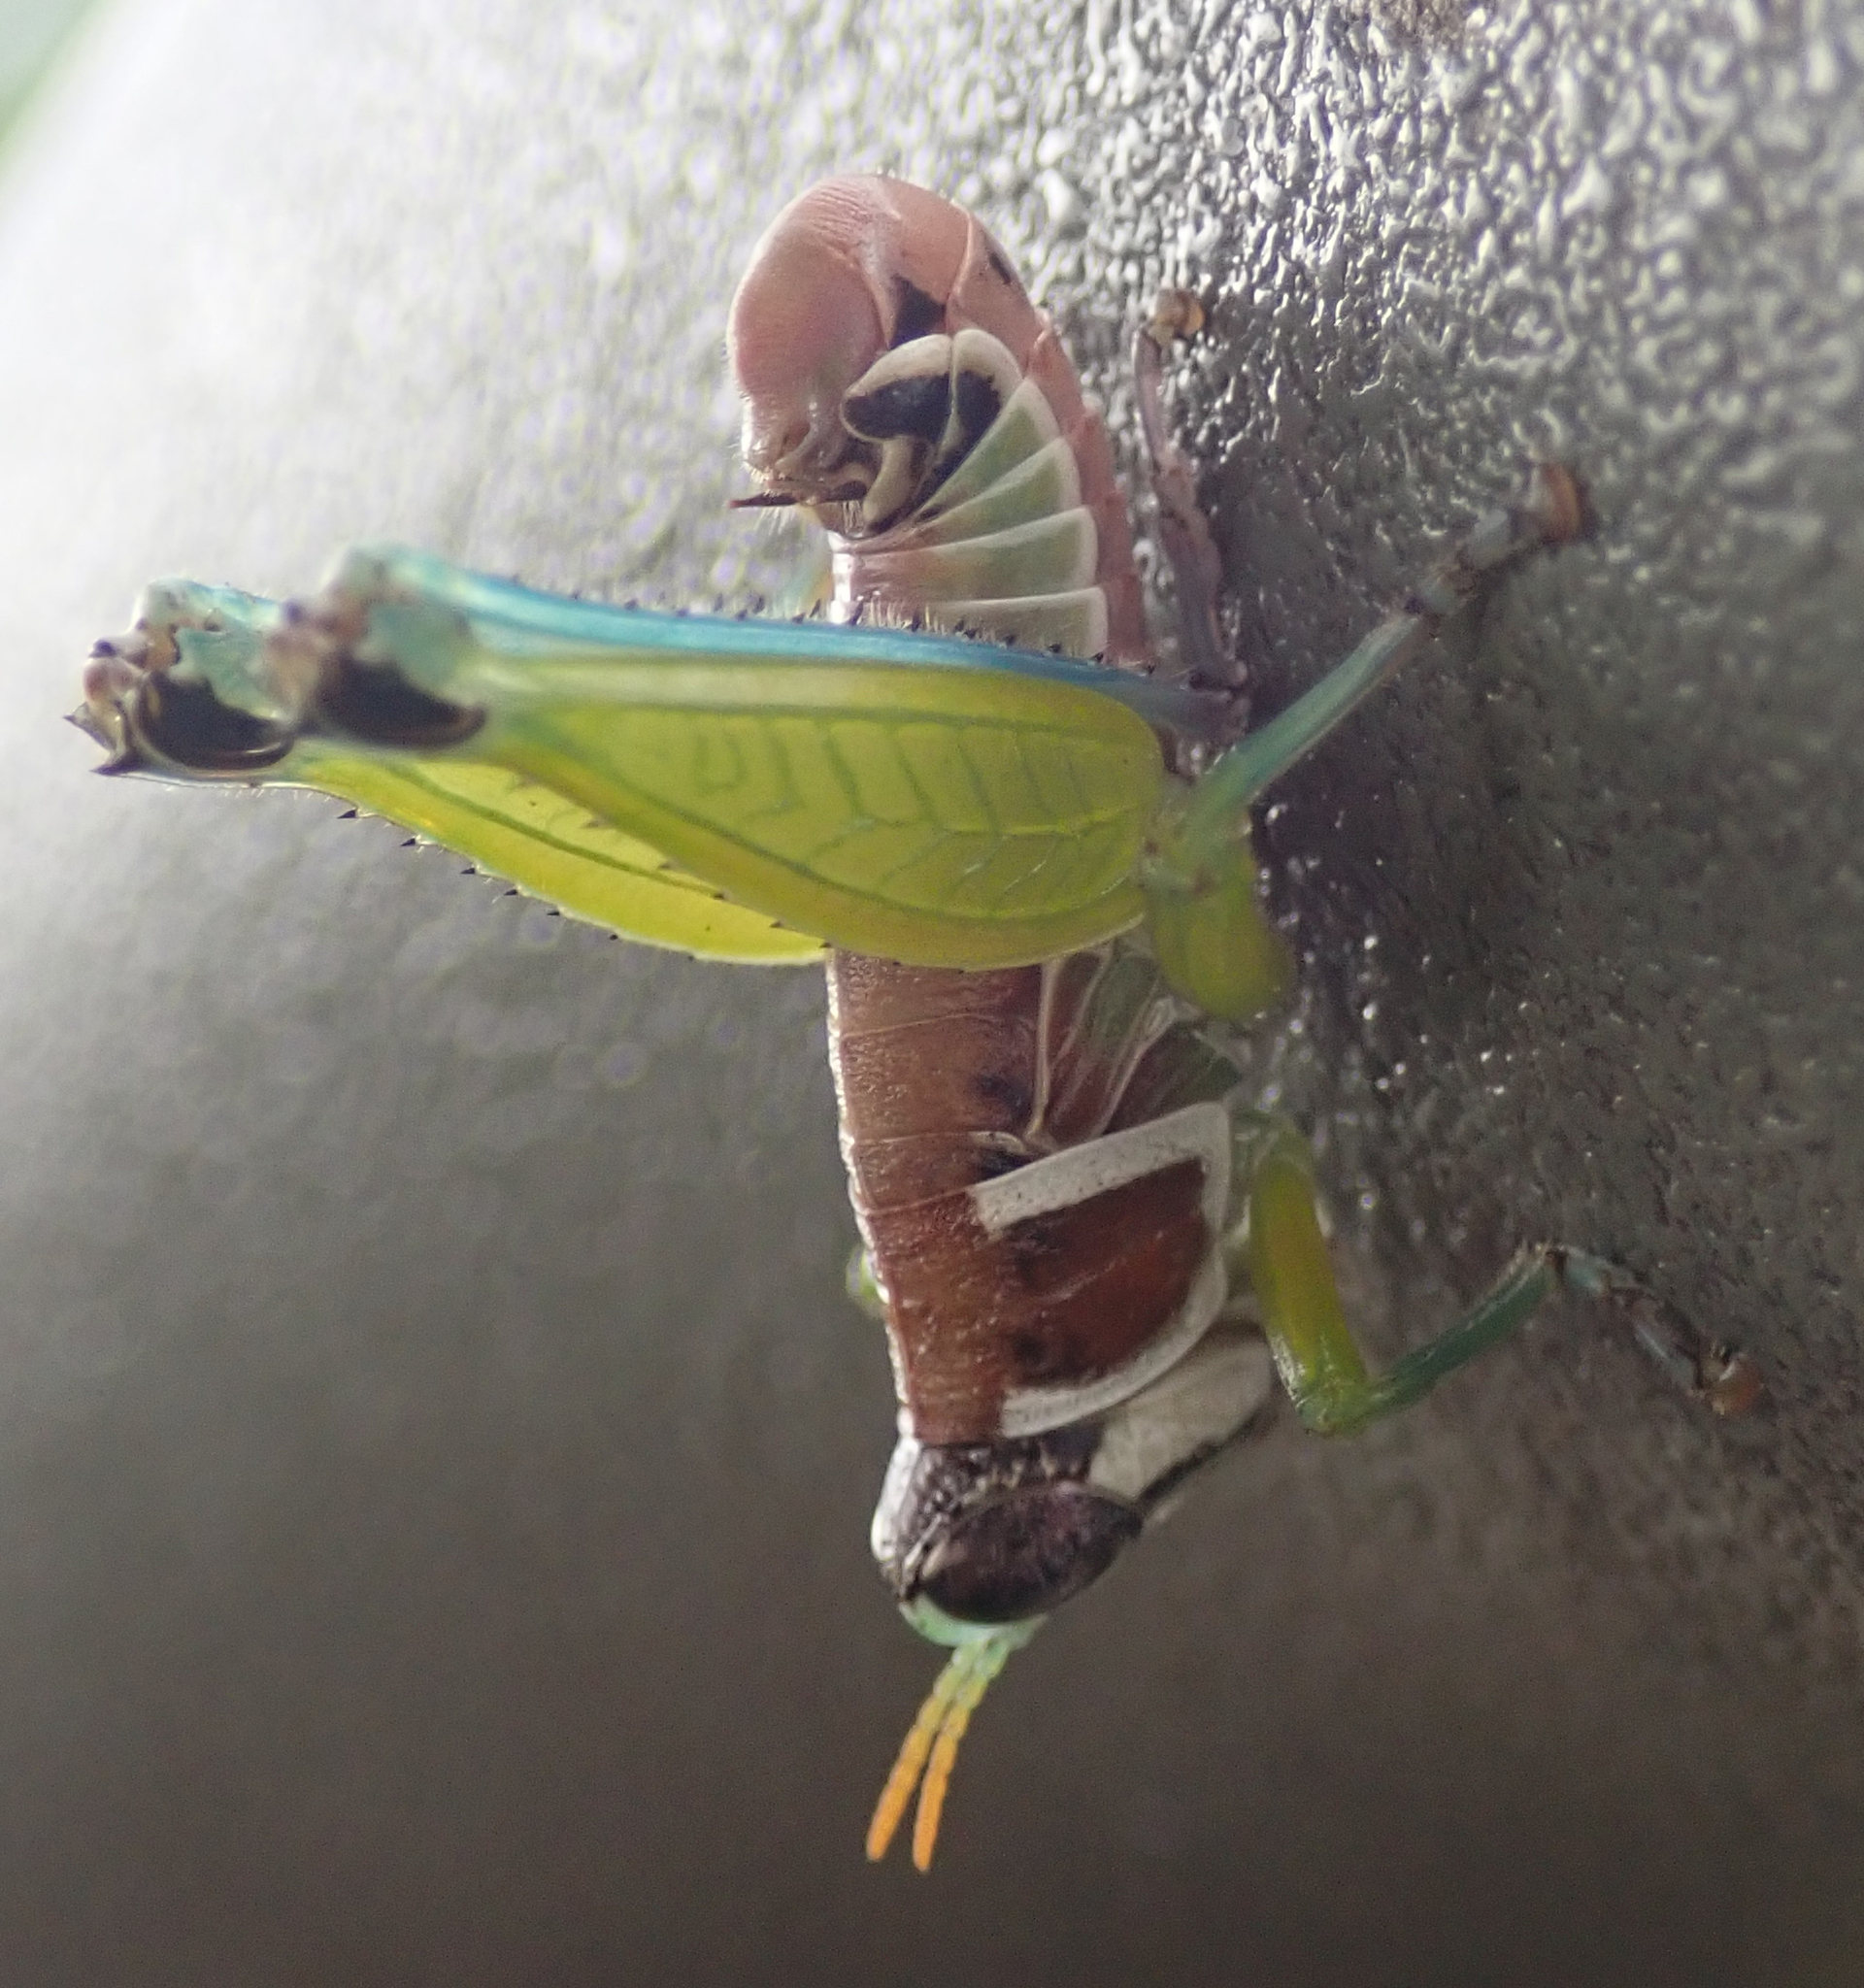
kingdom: Animalia
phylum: Arthropoda
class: Insecta
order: Orthoptera
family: Thericleidae
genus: Lophothericles
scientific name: Lophothericles burri
